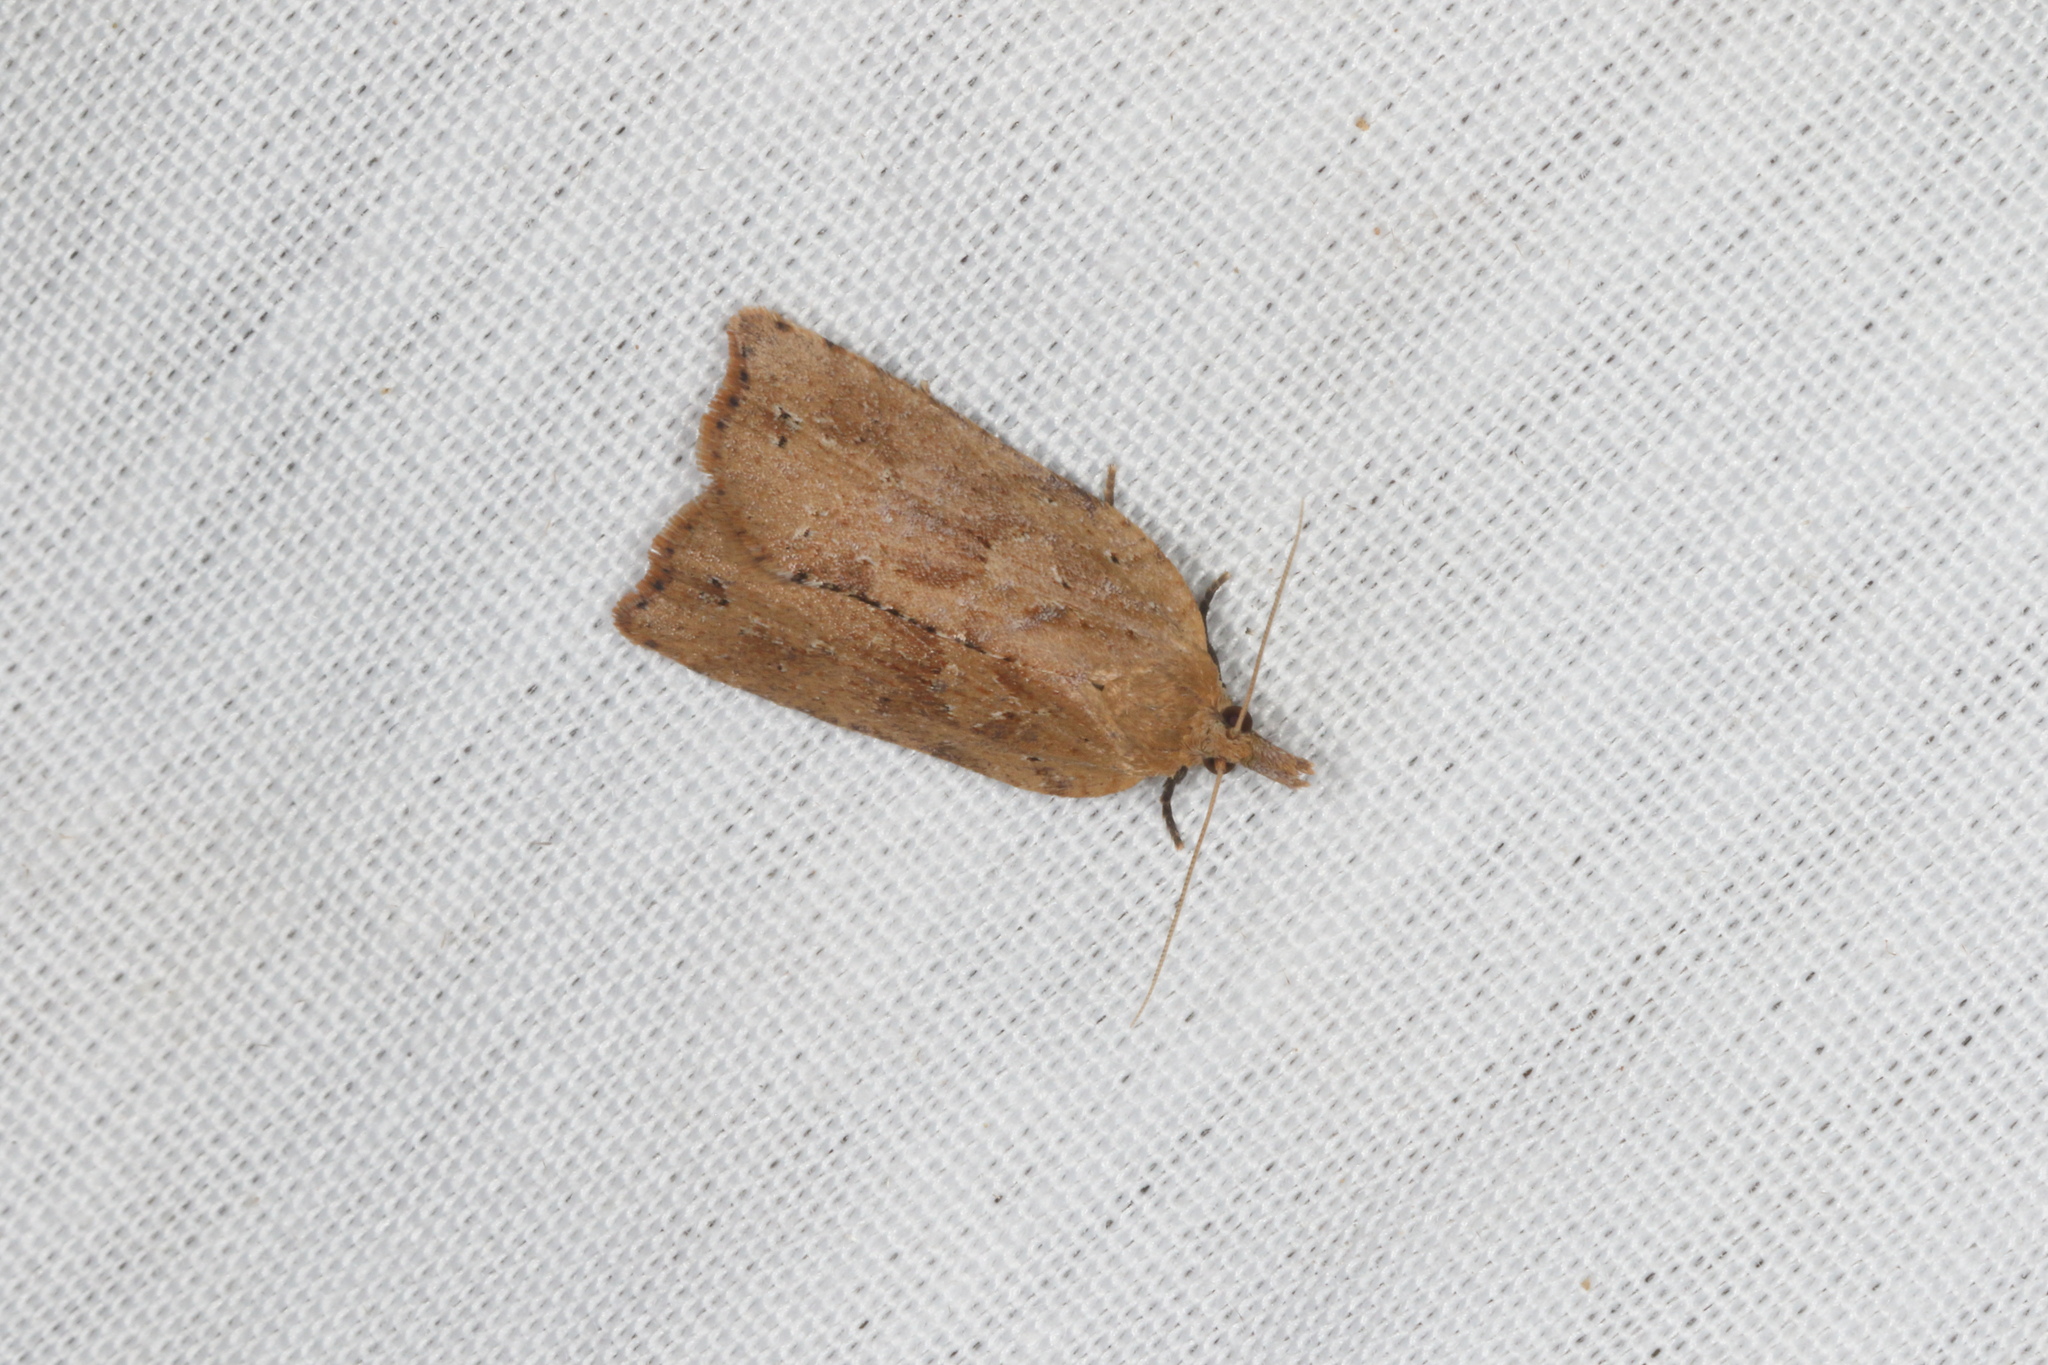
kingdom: Animalia
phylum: Arthropoda
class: Insecta
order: Lepidoptera
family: Tortricidae
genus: Planotortrix
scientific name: Planotortrix notophaea
